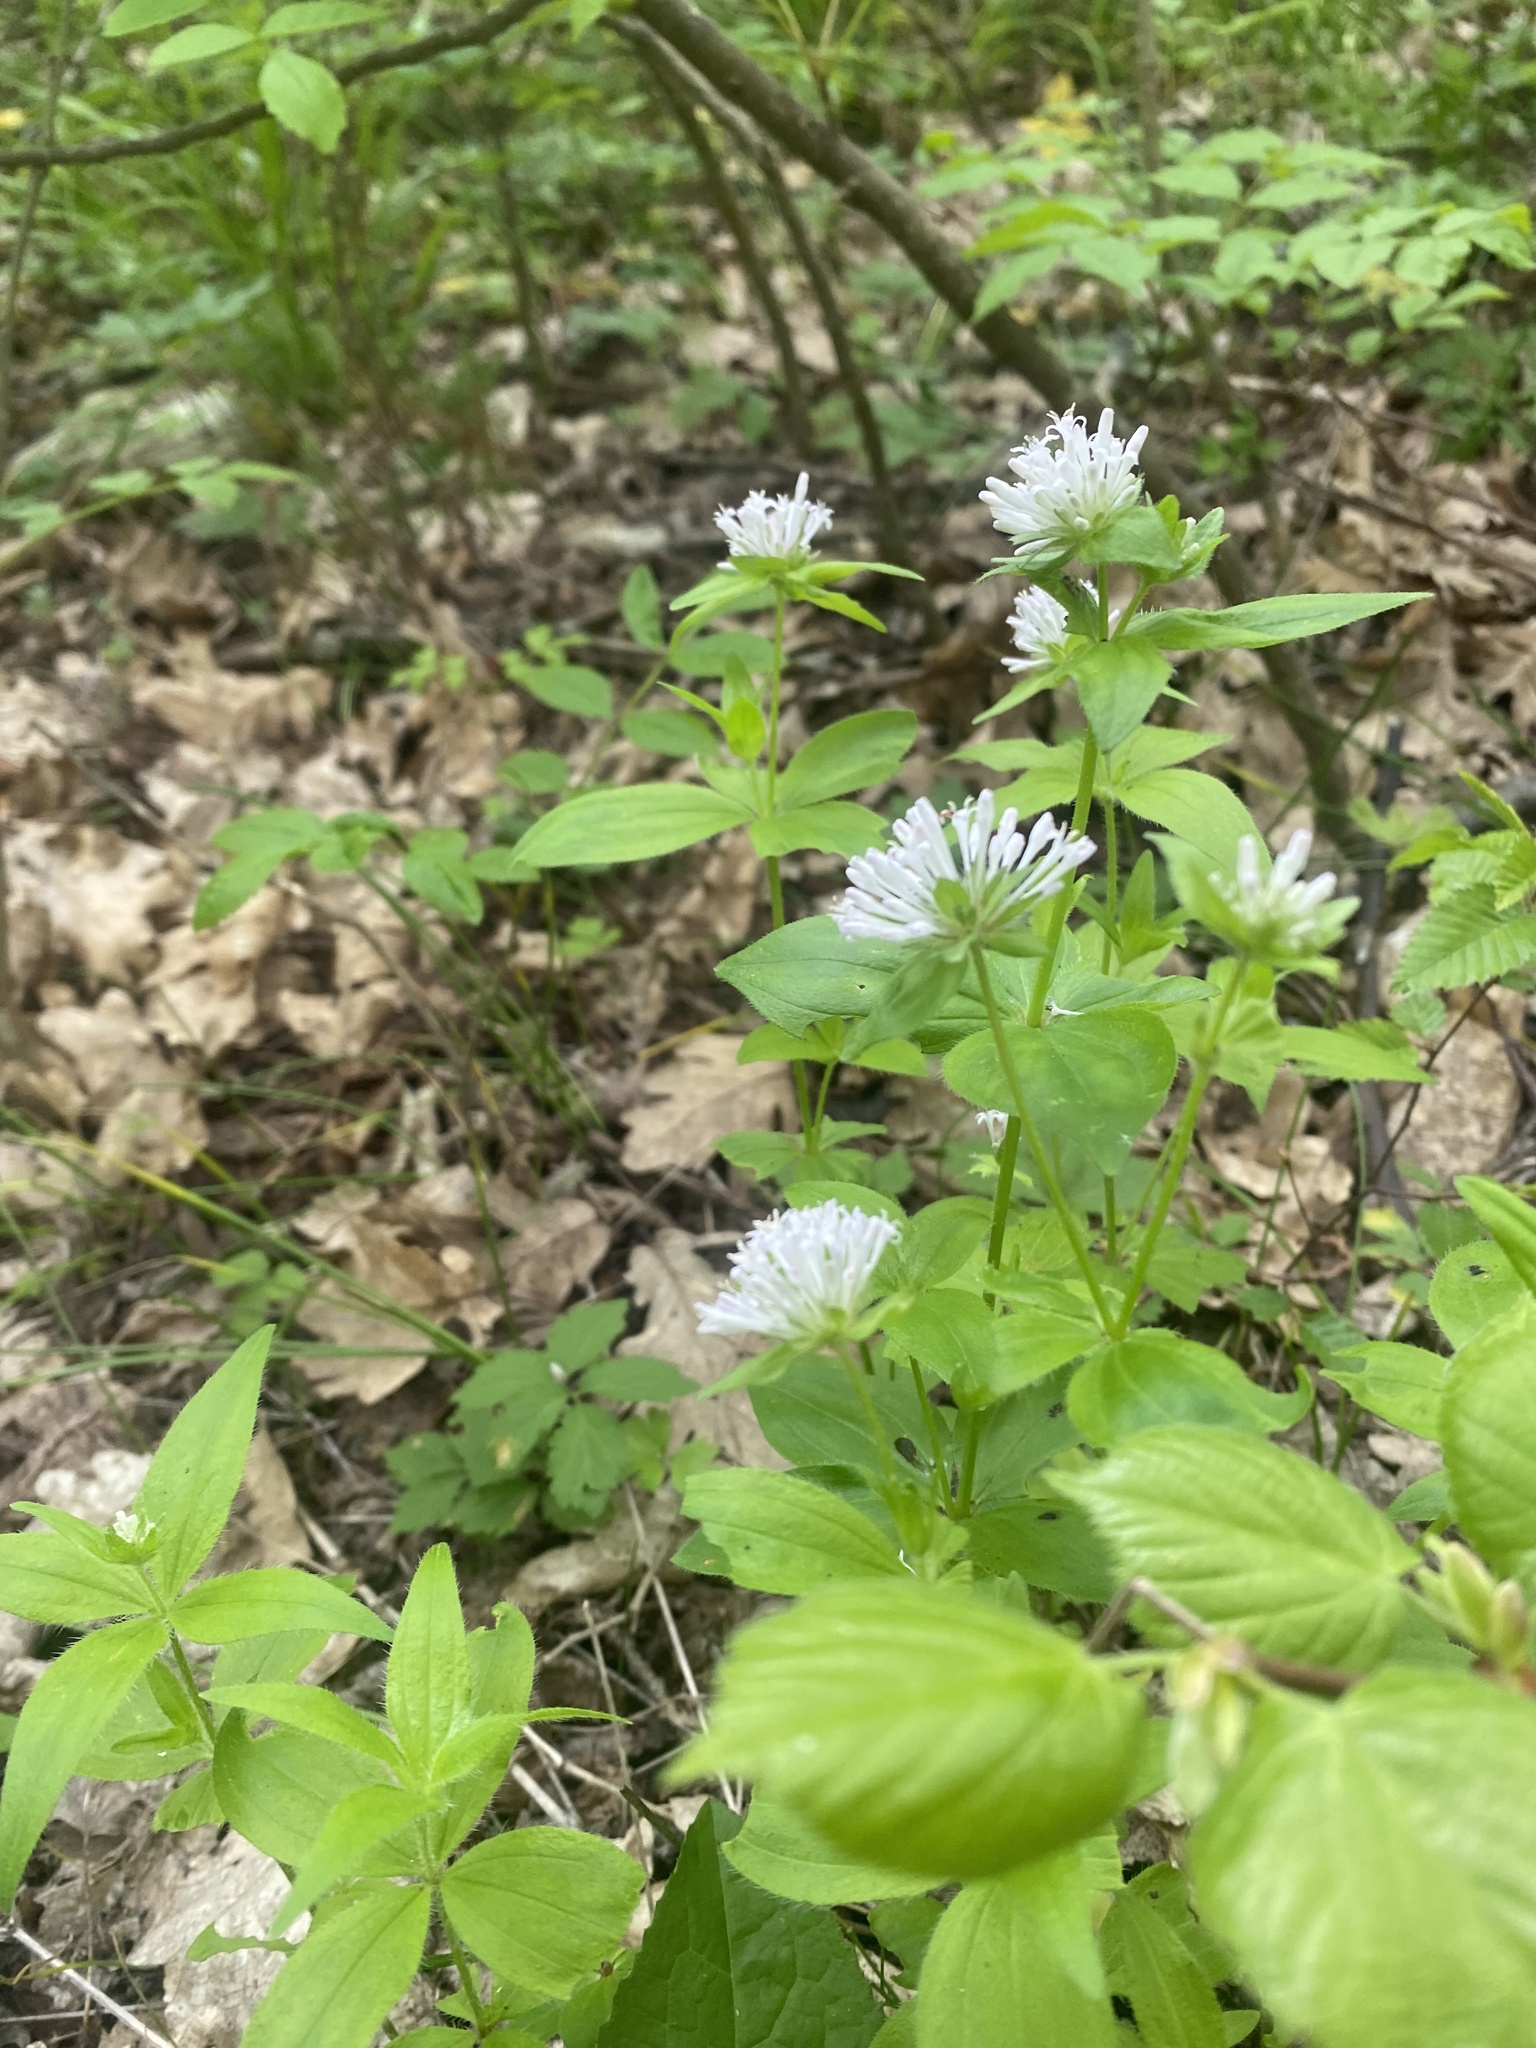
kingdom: Plantae
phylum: Tracheophyta
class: Magnoliopsida
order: Gentianales
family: Rubiaceae
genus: Asperula
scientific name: Asperula taurina
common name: Pink woodruff
